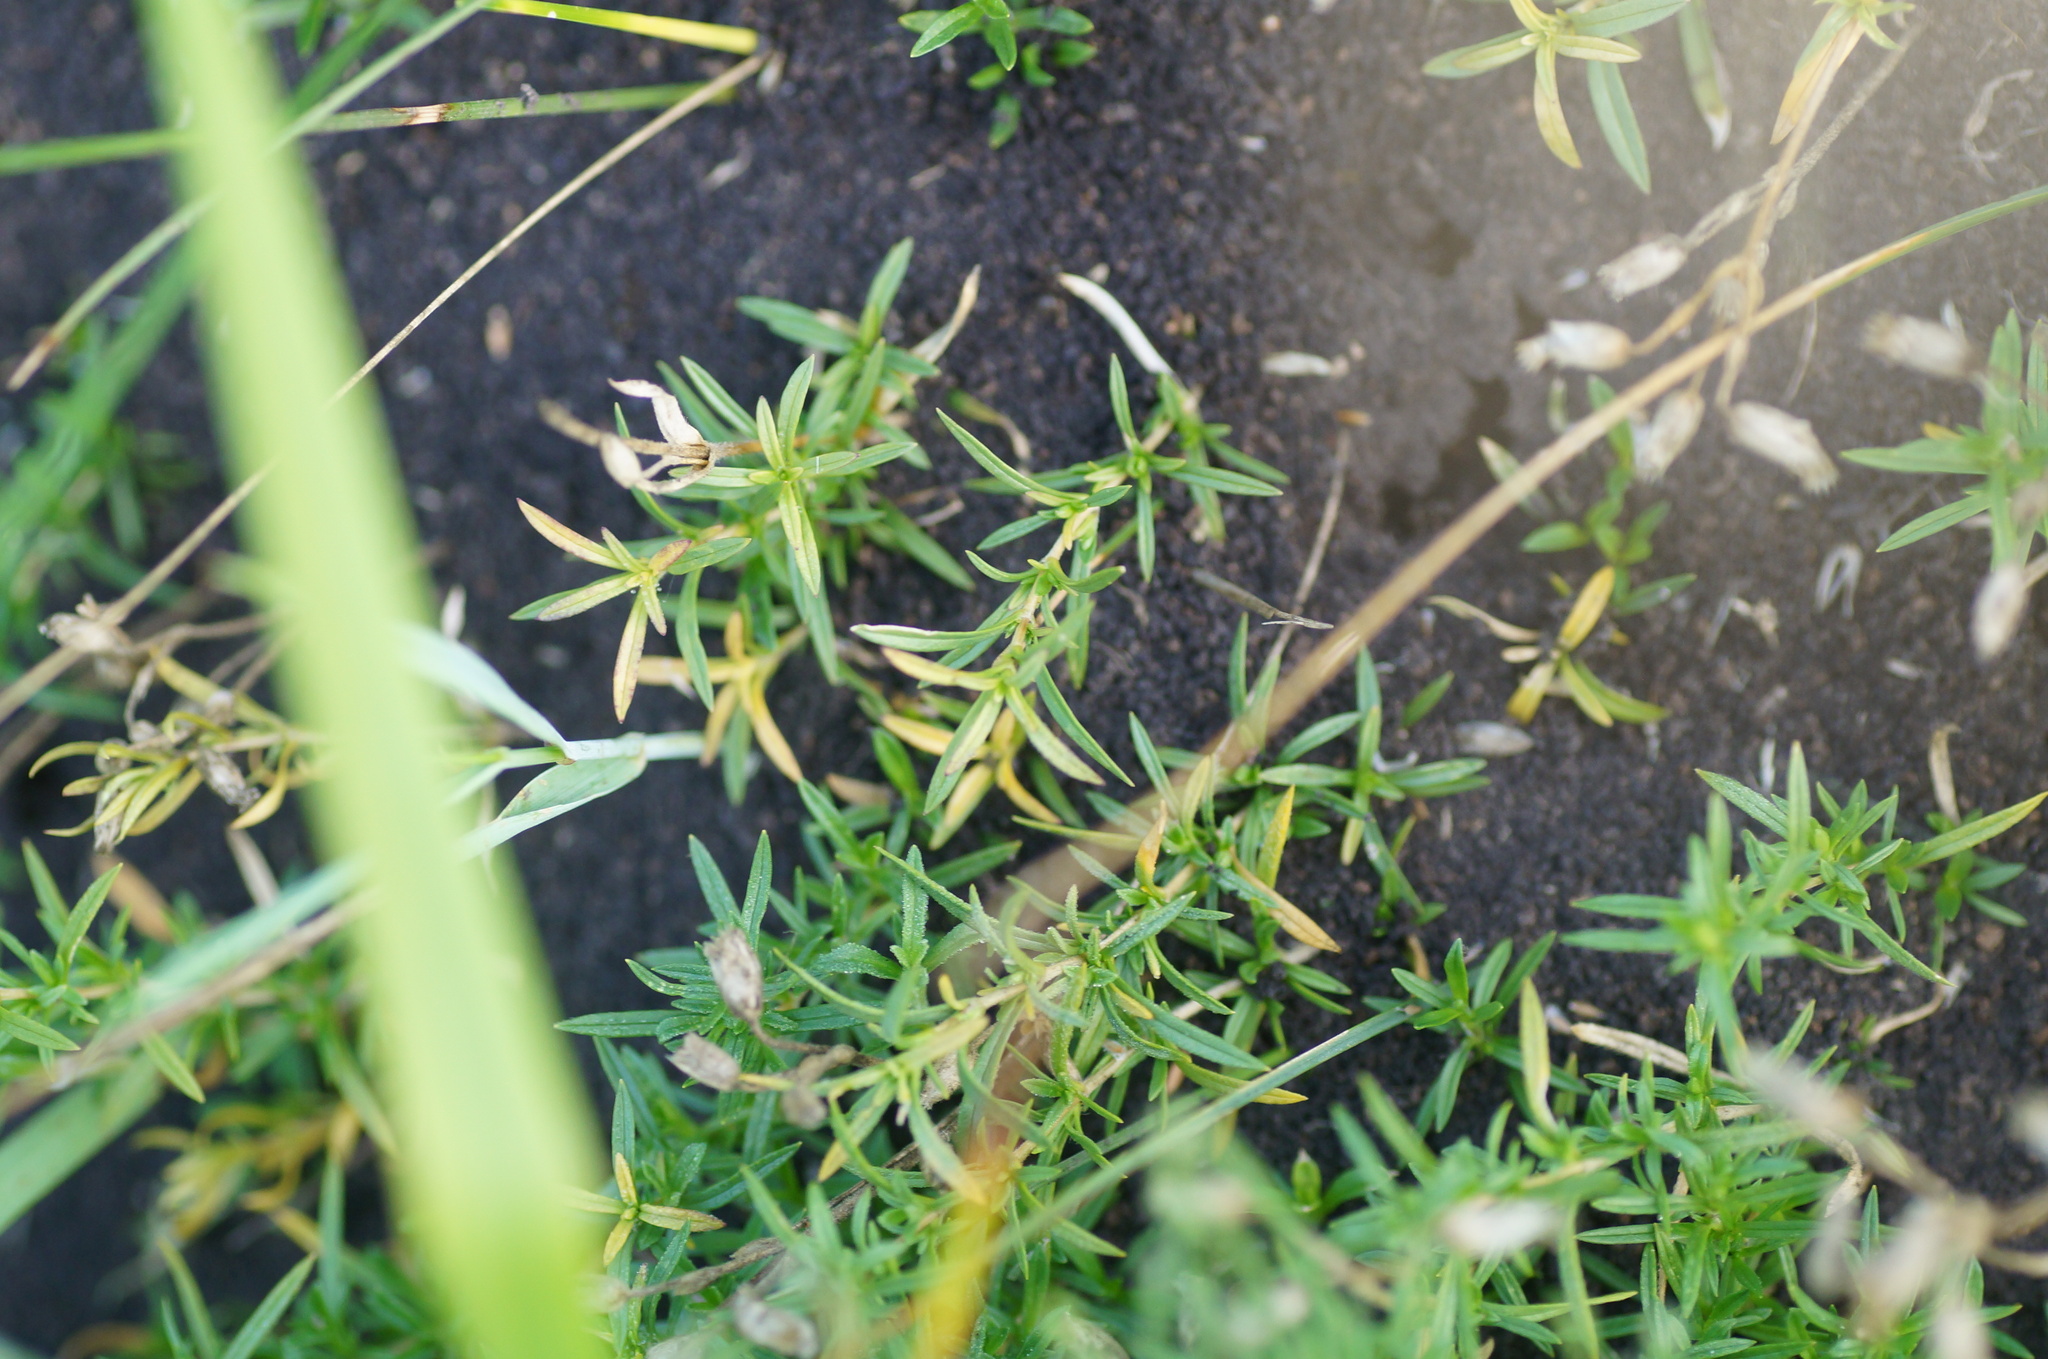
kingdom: Plantae
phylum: Tracheophyta
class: Magnoliopsida
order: Caryophyllales
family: Caryophyllaceae
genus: Cerastium
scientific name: Cerastium arvense
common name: Field mouse-ear
